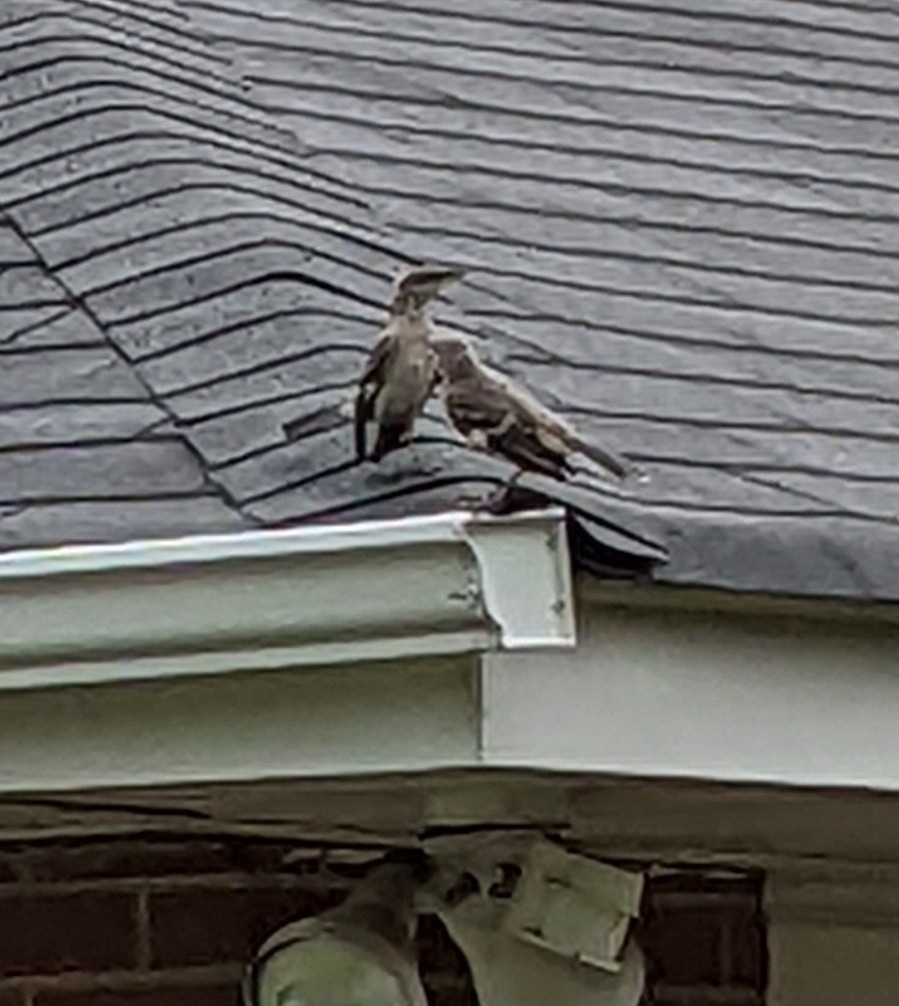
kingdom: Animalia
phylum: Chordata
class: Aves
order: Passeriformes
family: Mimidae
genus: Mimus
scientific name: Mimus polyglottos
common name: Northern mockingbird
